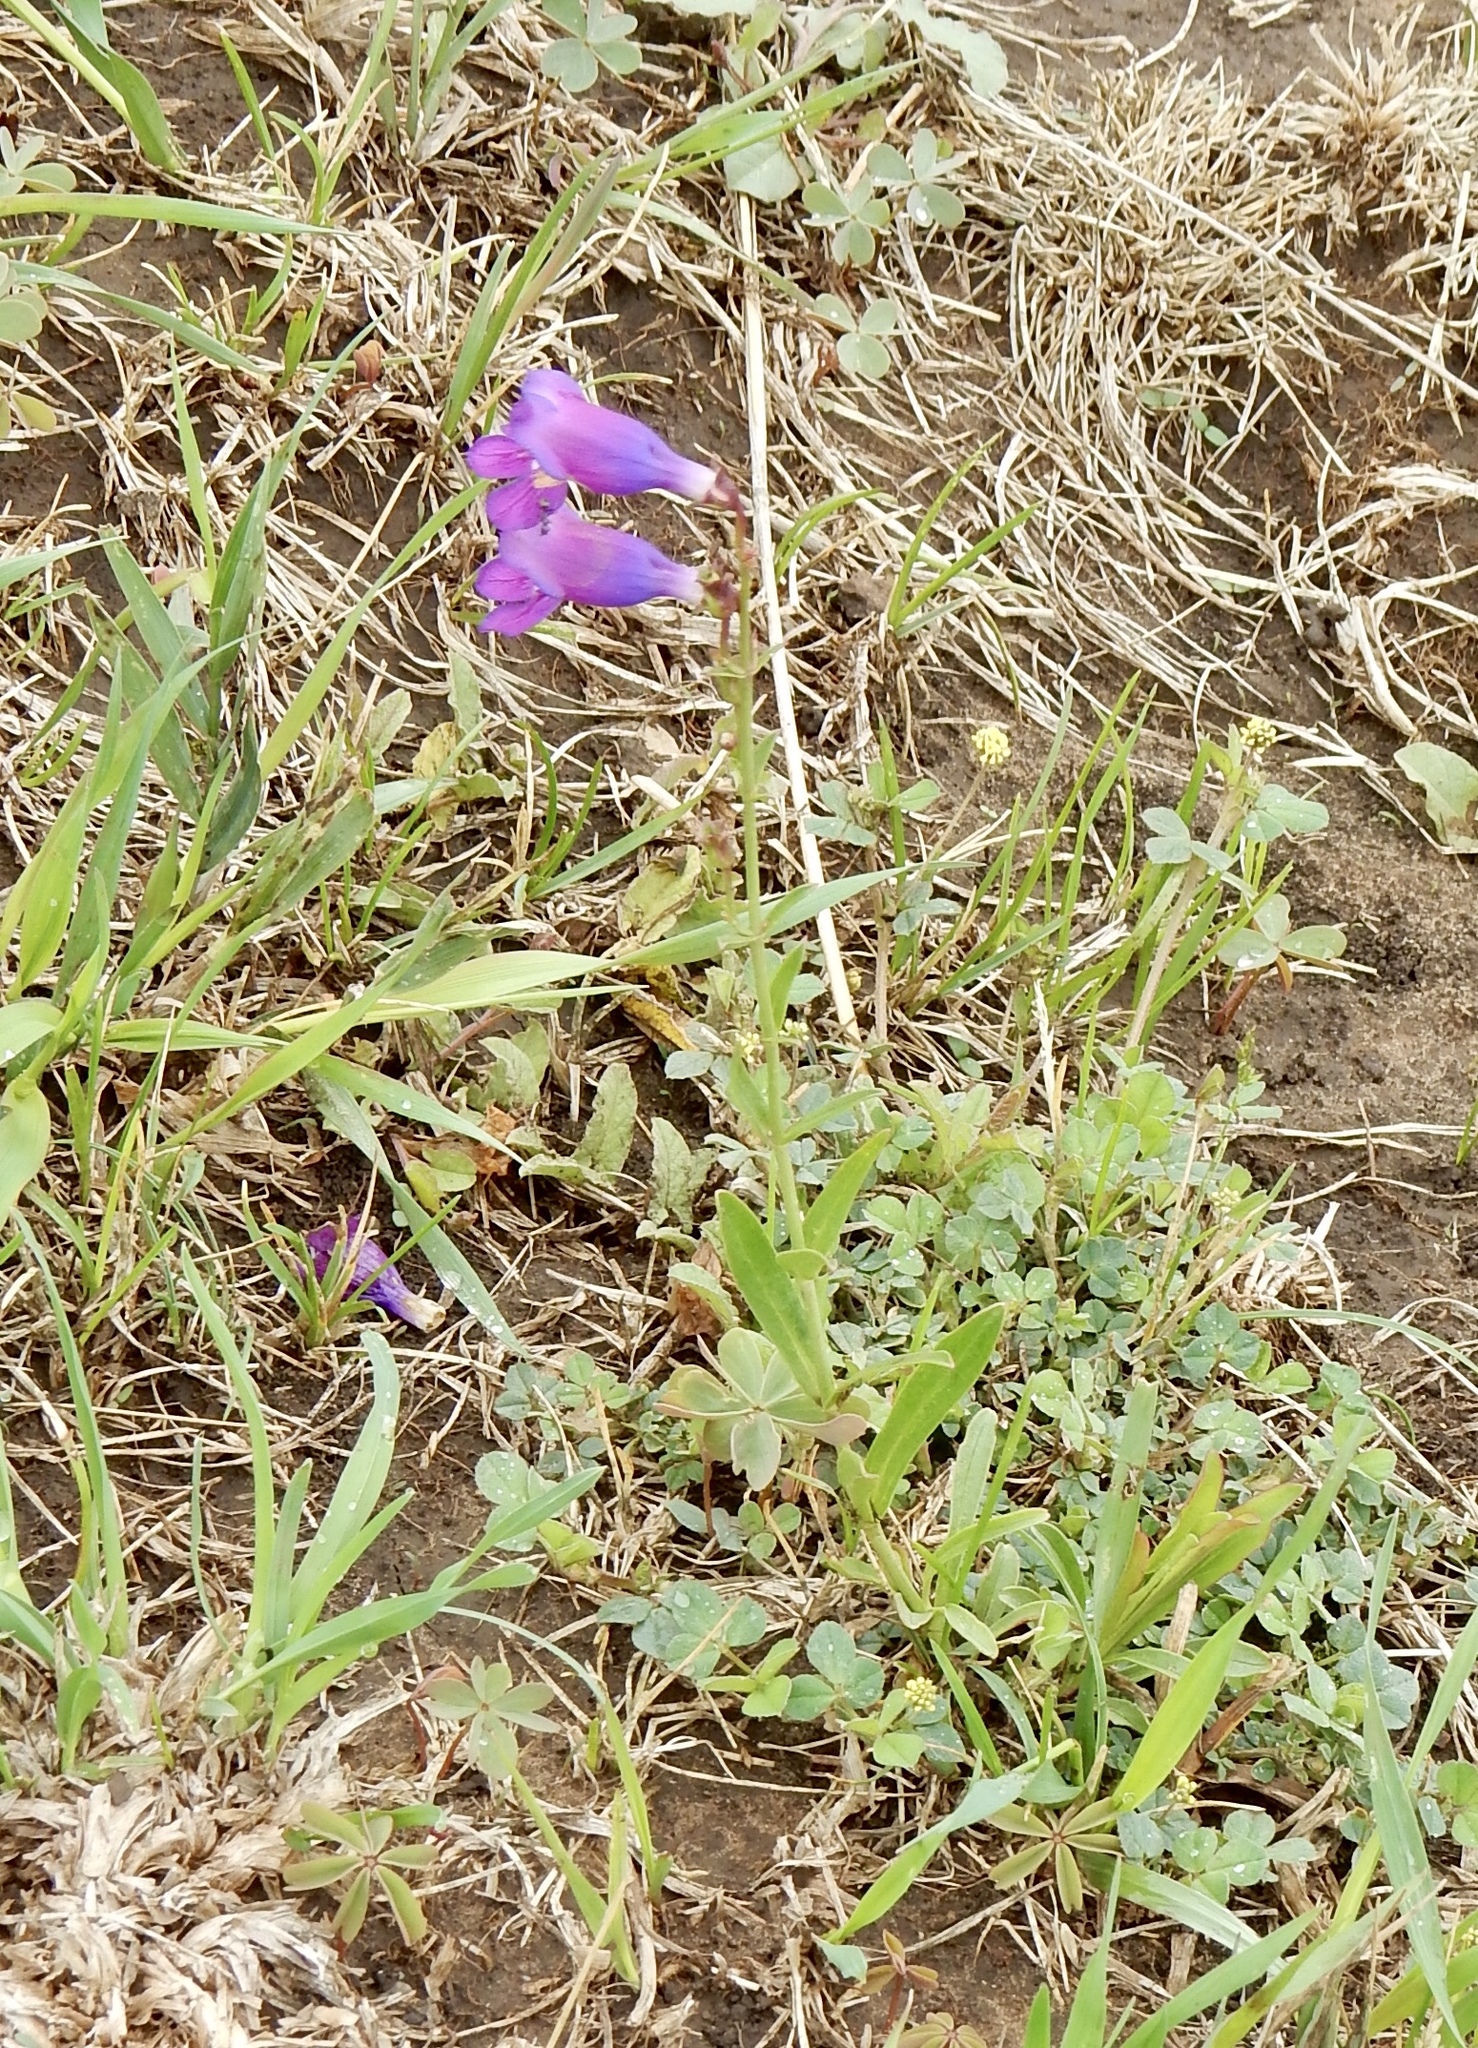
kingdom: Plantae
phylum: Tracheophyta
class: Magnoliopsida
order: Lamiales
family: Plantaginaceae
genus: Penstemon
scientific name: Penstemon neomexicanus
